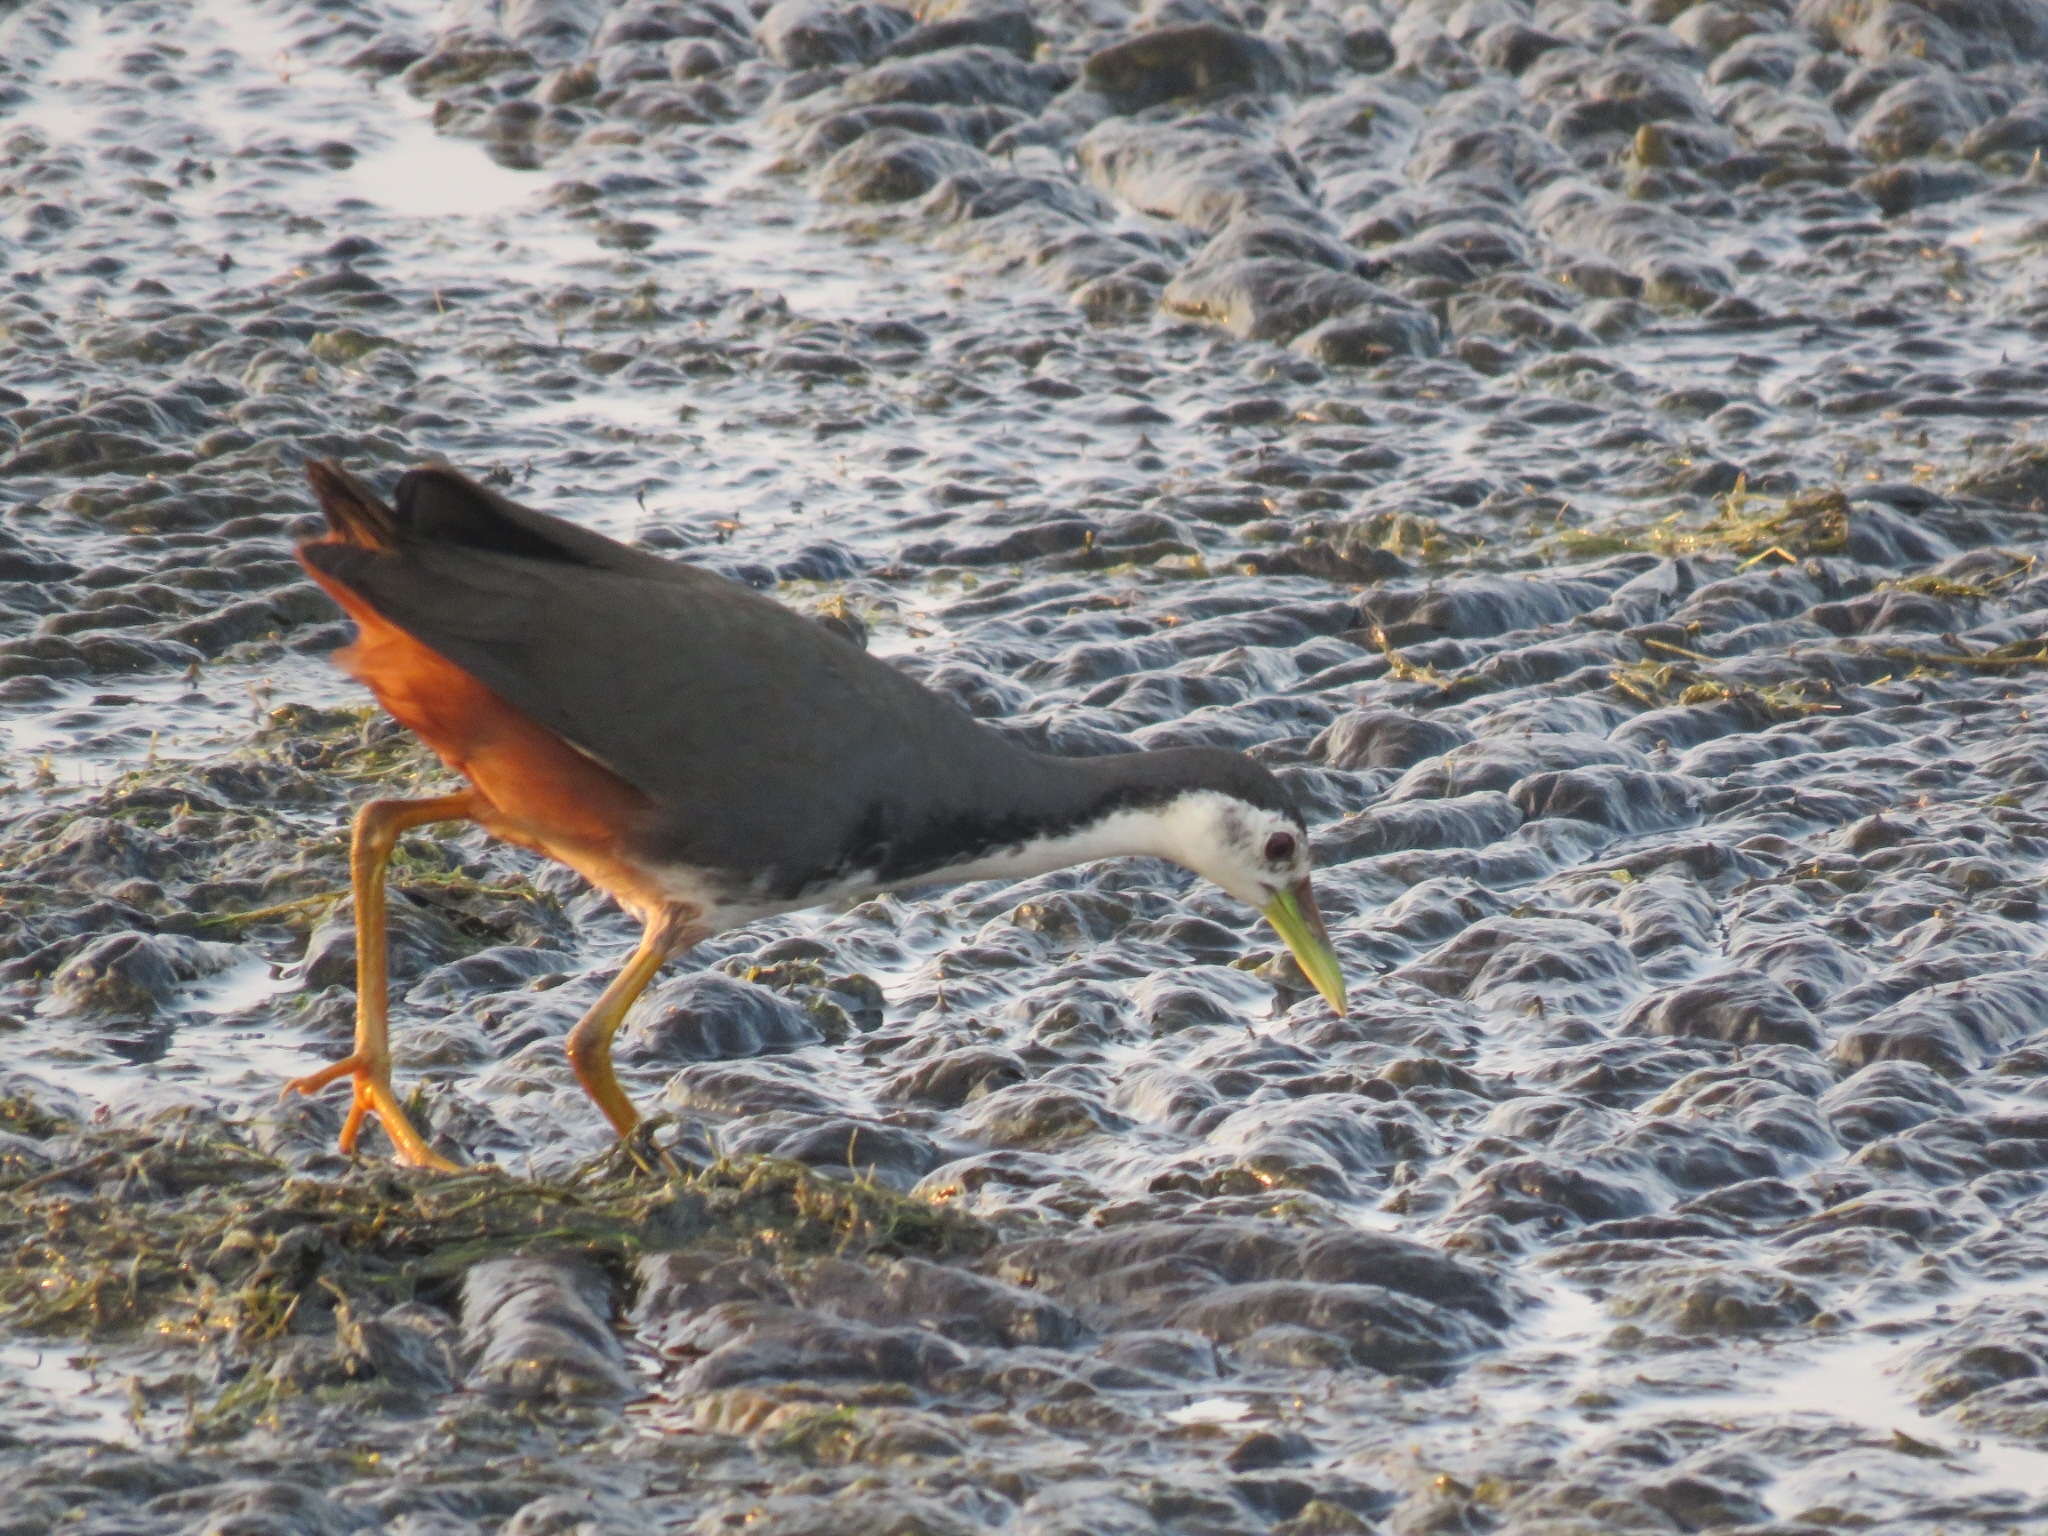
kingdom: Animalia
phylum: Chordata
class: Aves
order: Gruiformes
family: Rallidae
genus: Amaurornis
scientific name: Amaurornis phoenicurus
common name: White-breasted waterhen
